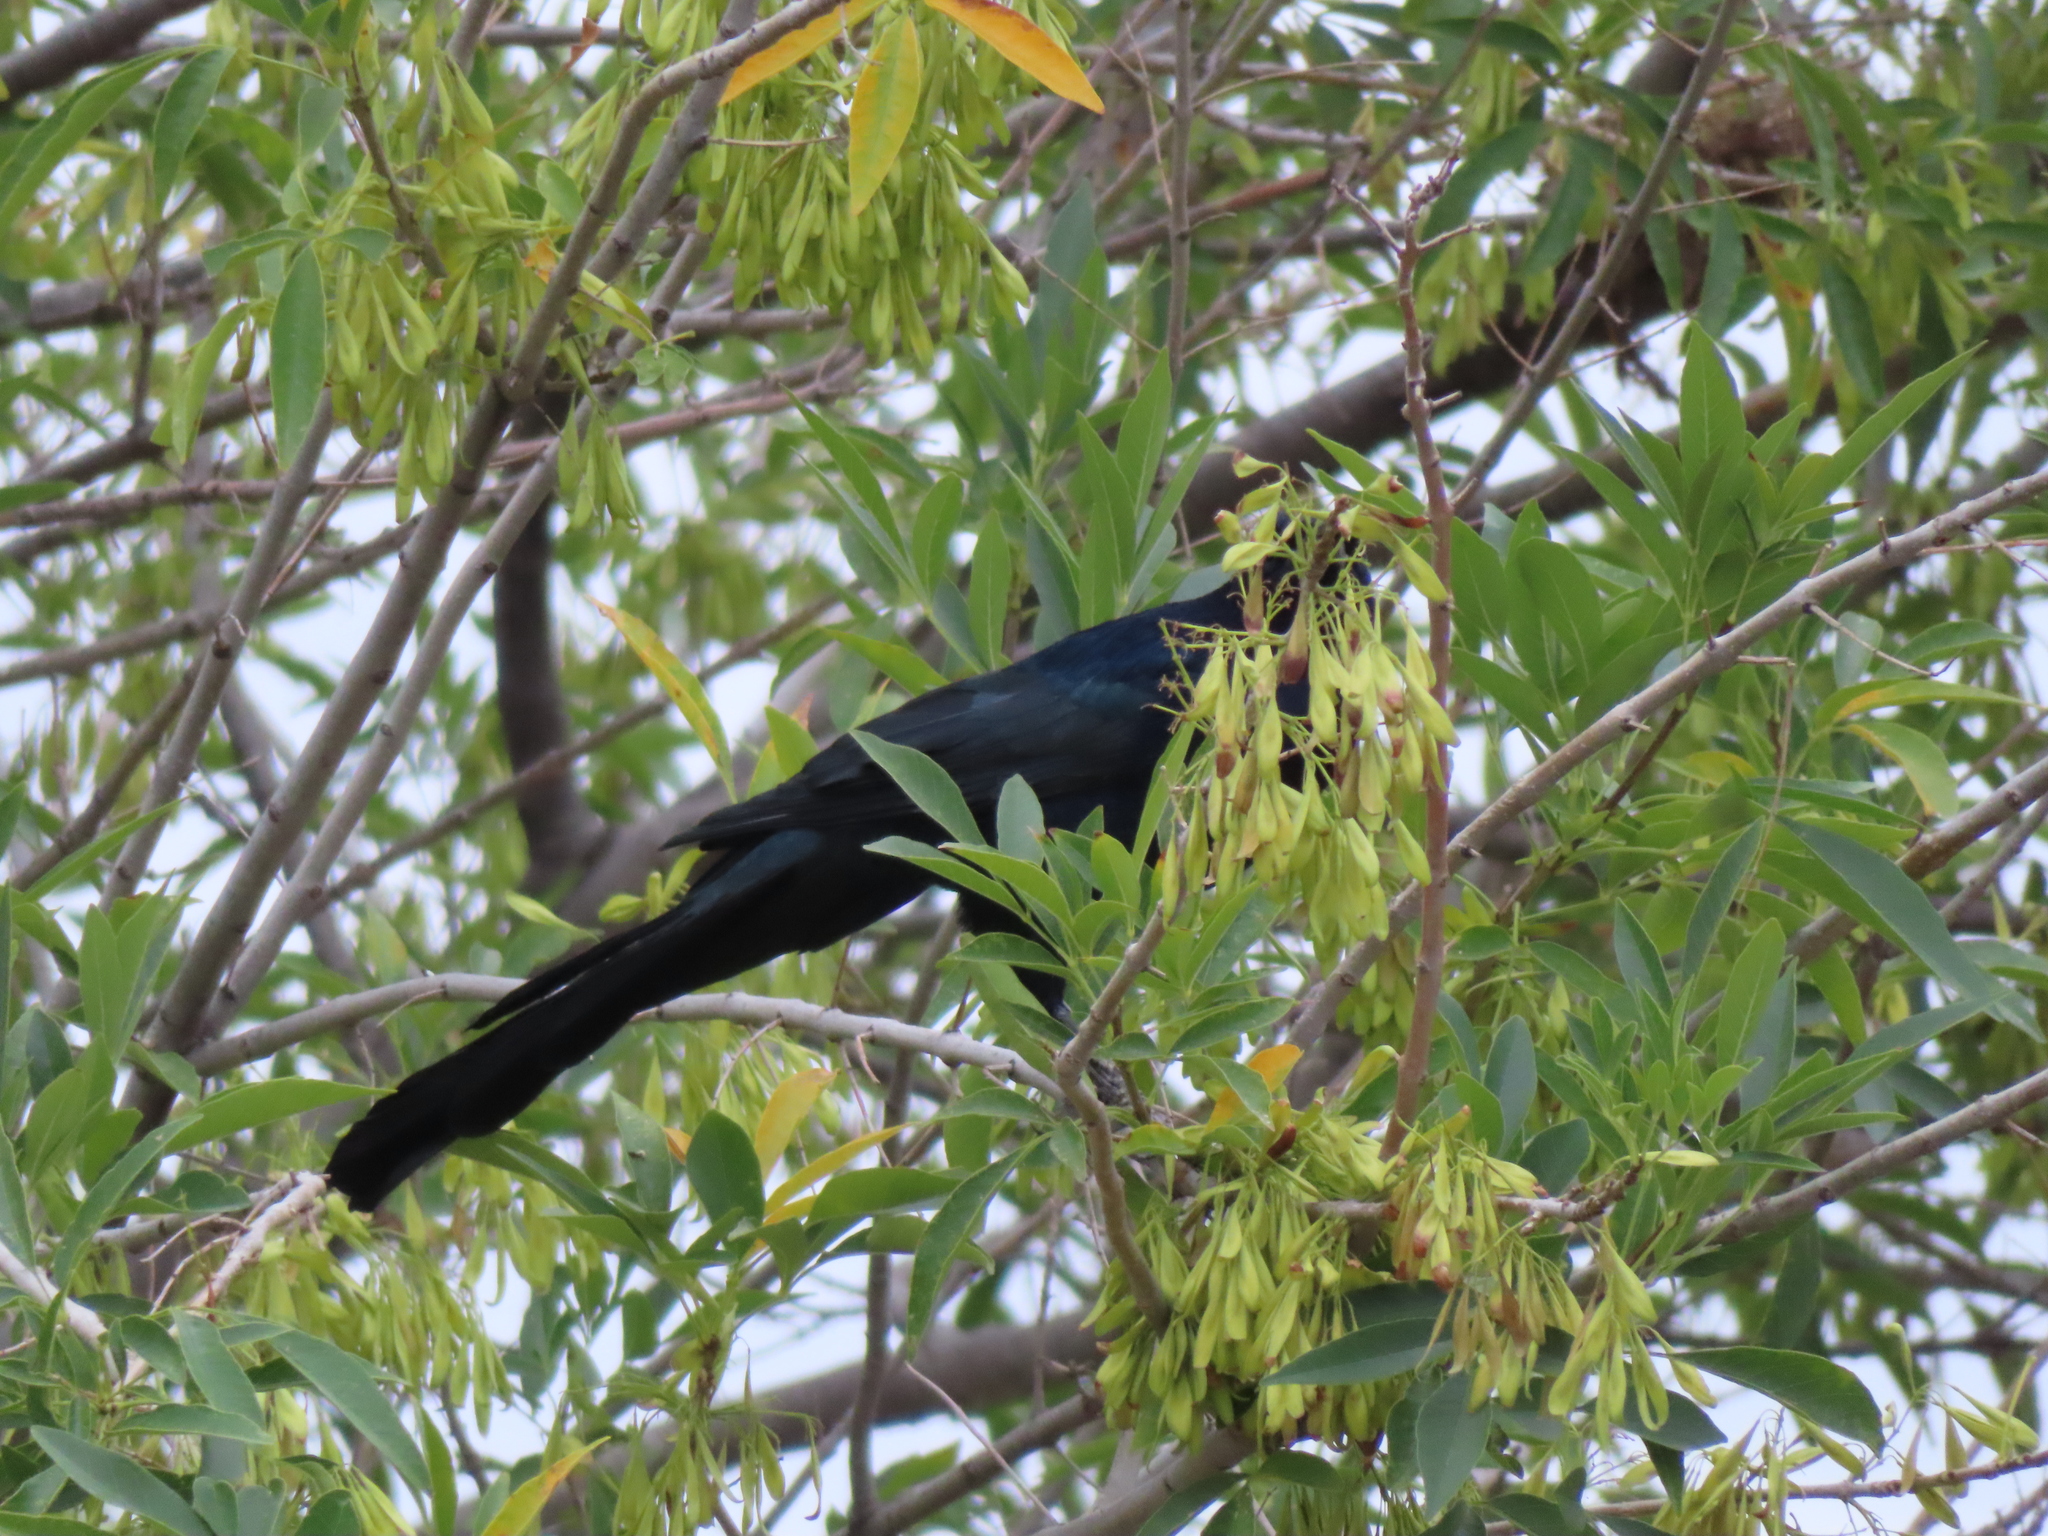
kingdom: Animalia
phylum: Chordata
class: Aves
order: Passeriformes
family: Icteridae
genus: Quiscalus
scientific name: Quiscalus mexicanus
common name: Great-tailed grackle
